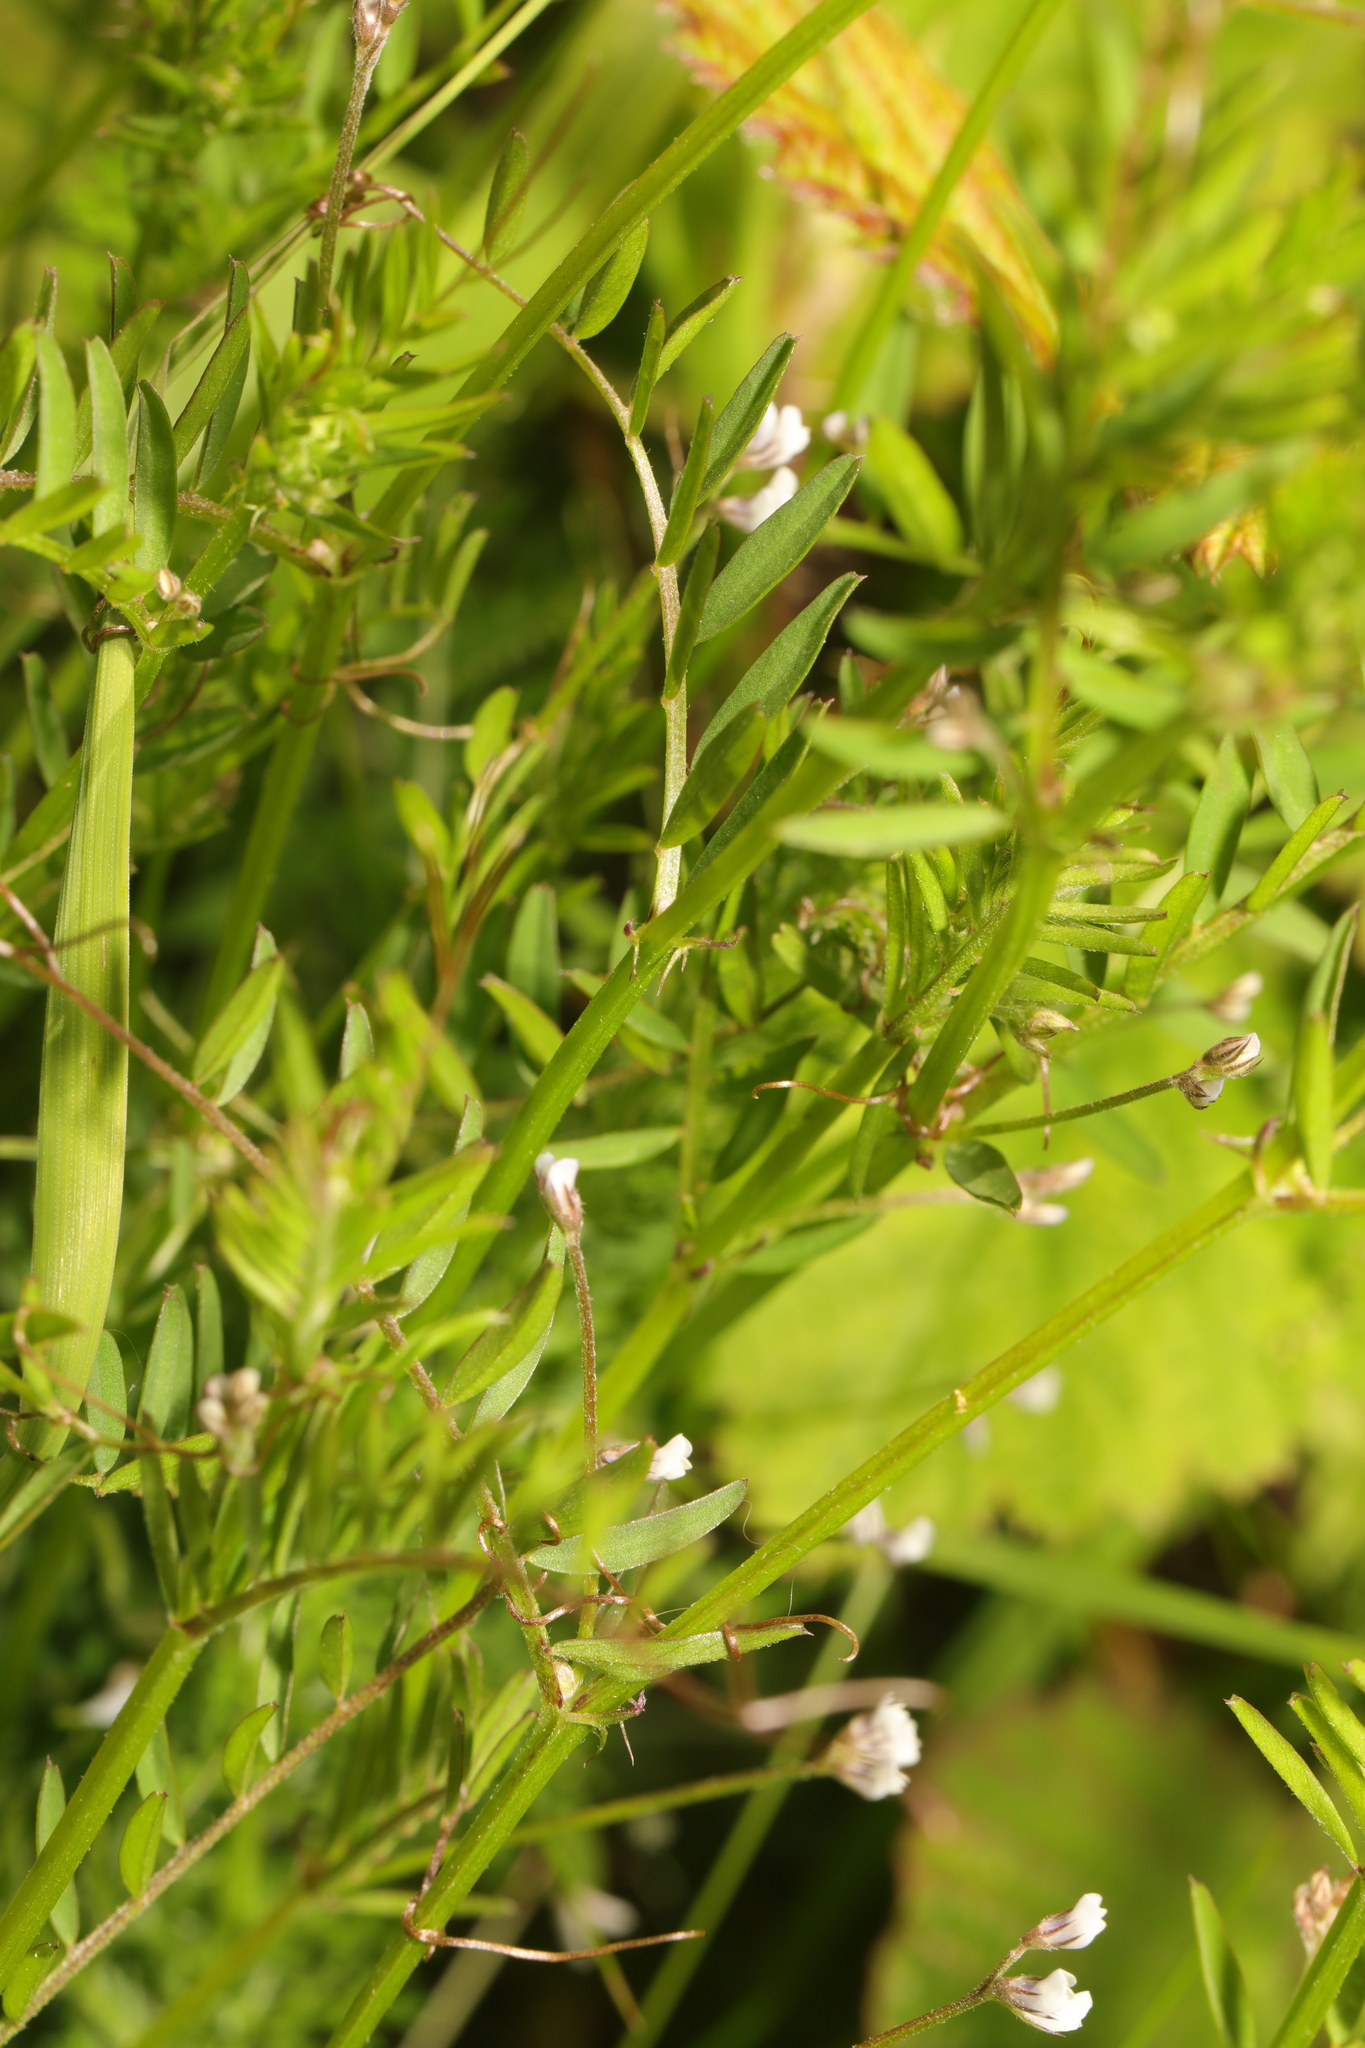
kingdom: Plantae
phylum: Tracheophyta
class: Magnoliopsida
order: Fabales
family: Fabaceae
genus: Vicia
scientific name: Vicia hirsuta
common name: Tiny vetch
